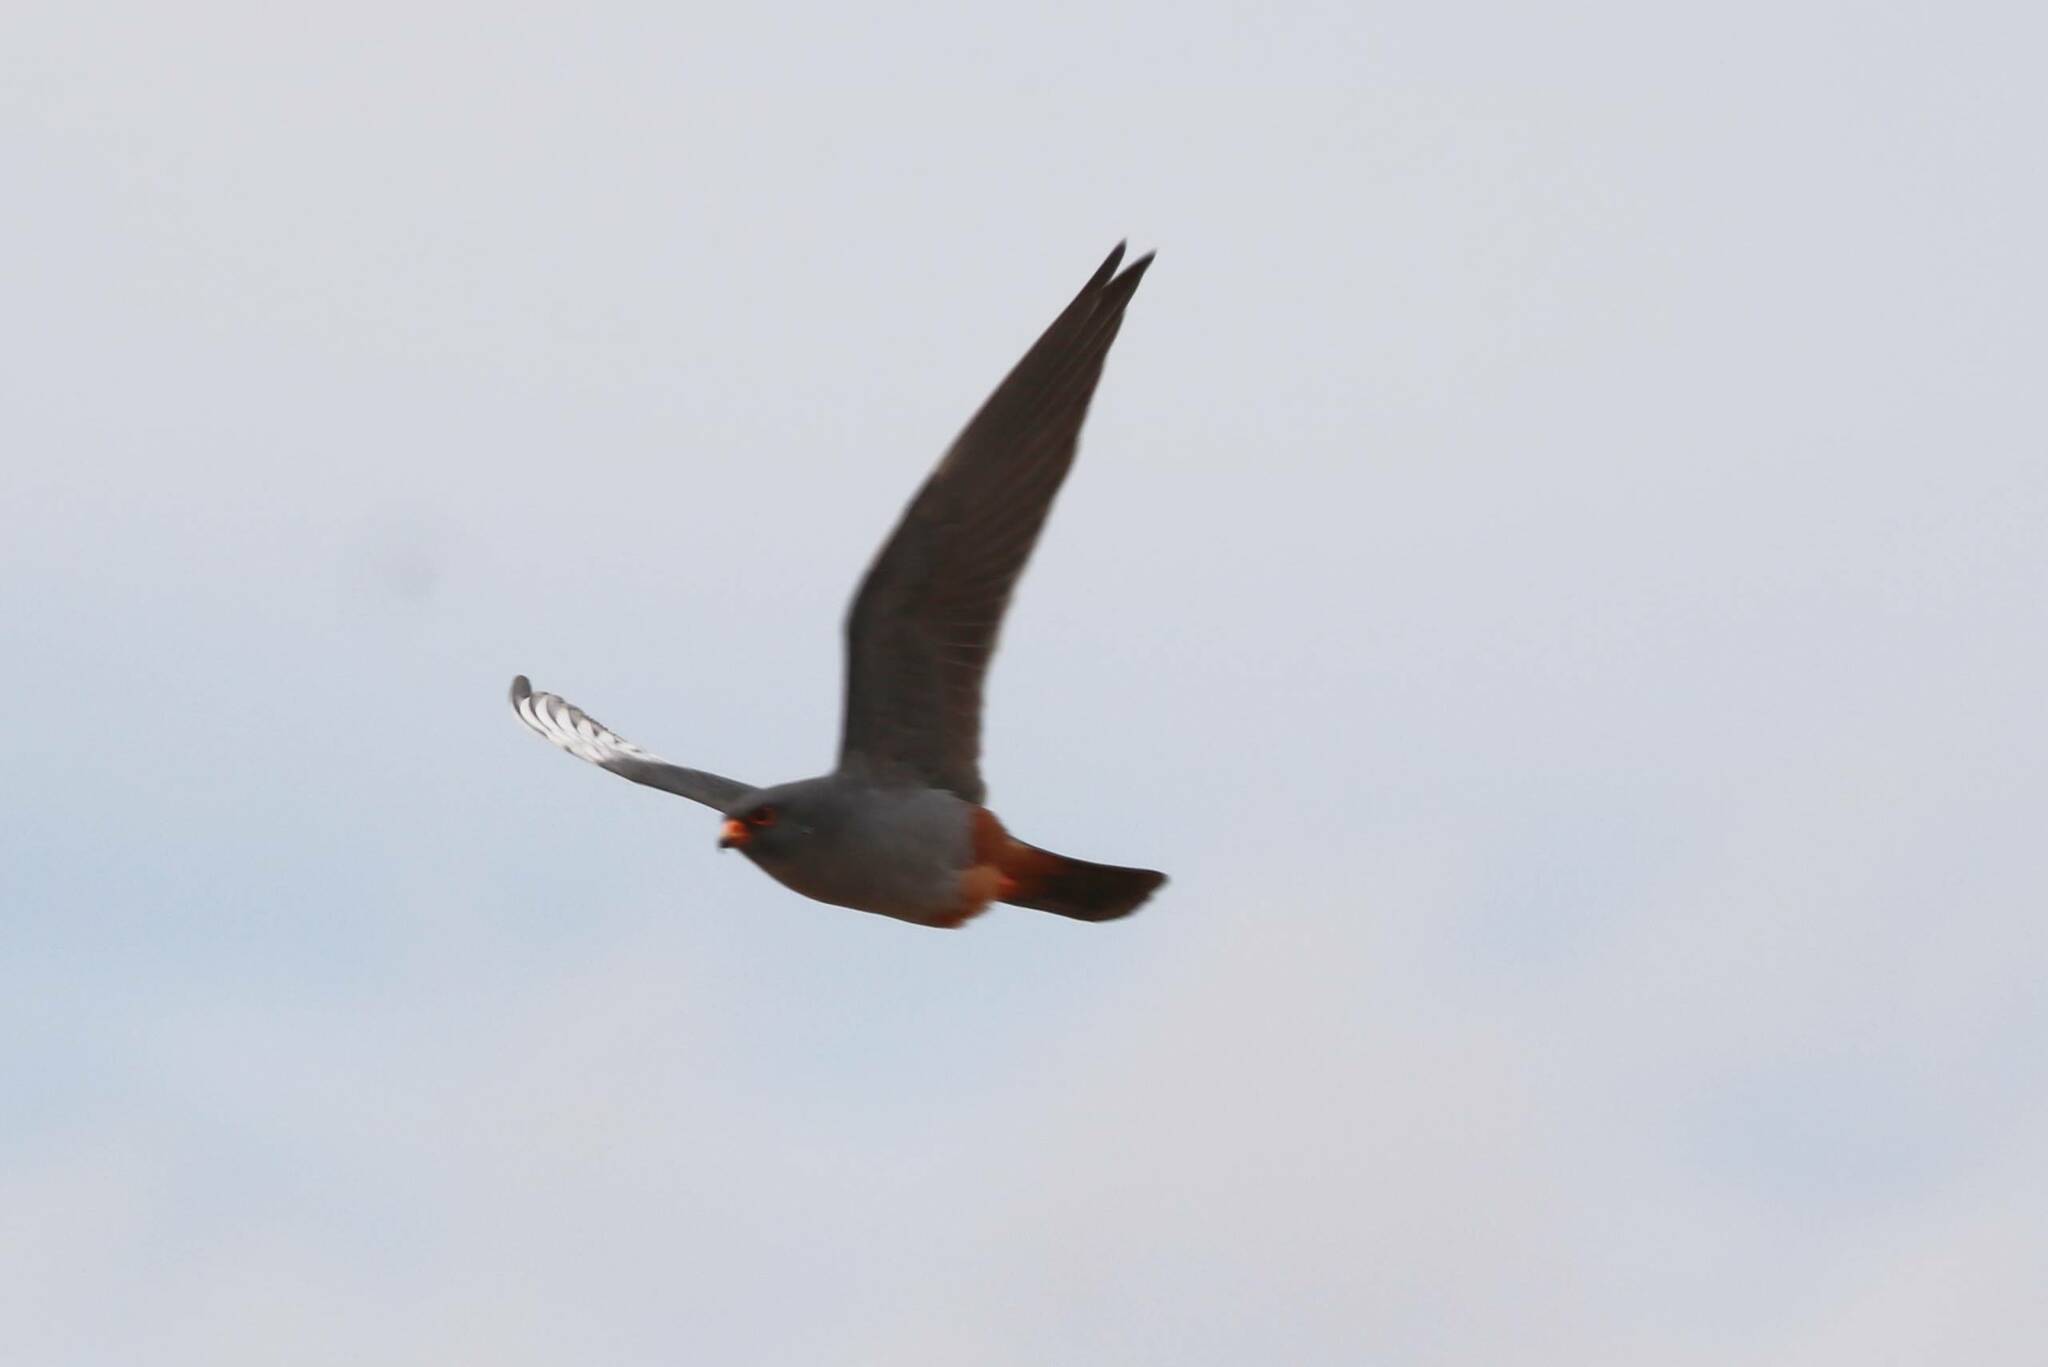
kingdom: Animalia
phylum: Chordata
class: Aves
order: Falconiformes
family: Falconidae
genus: Falco
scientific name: Falco vespertinus
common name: Red-footed falcon
